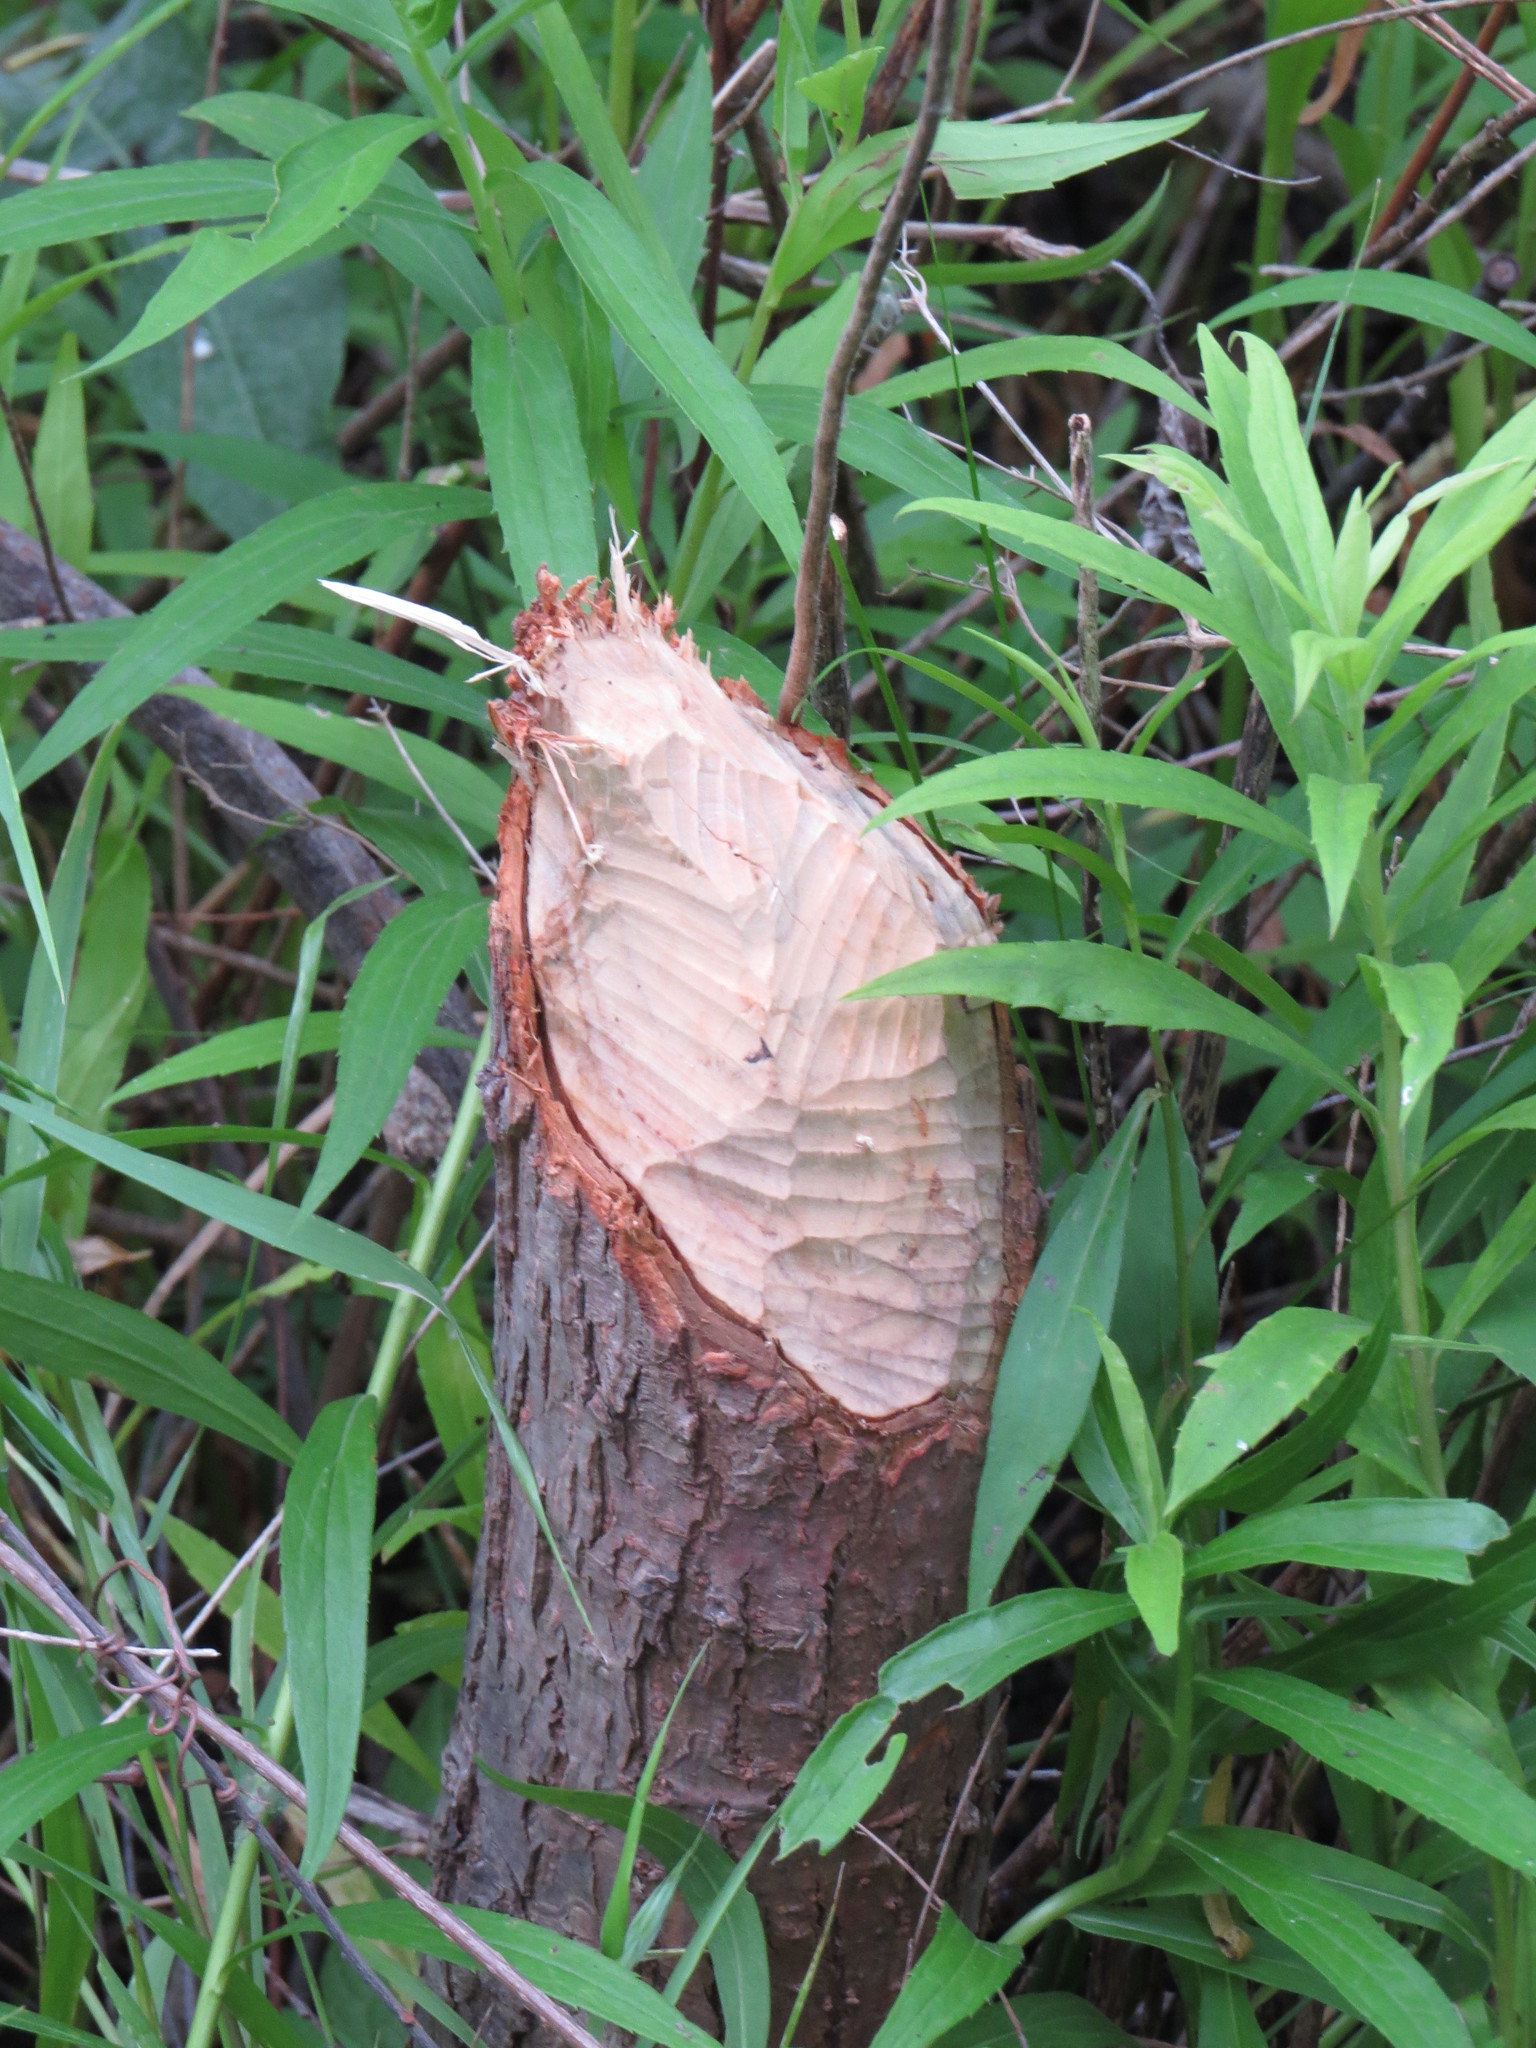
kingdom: Animalia
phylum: Chordata
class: Mammalia
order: Rodentia
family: Castoridae
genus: Castor
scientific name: Castor canadensis
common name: American beaver
